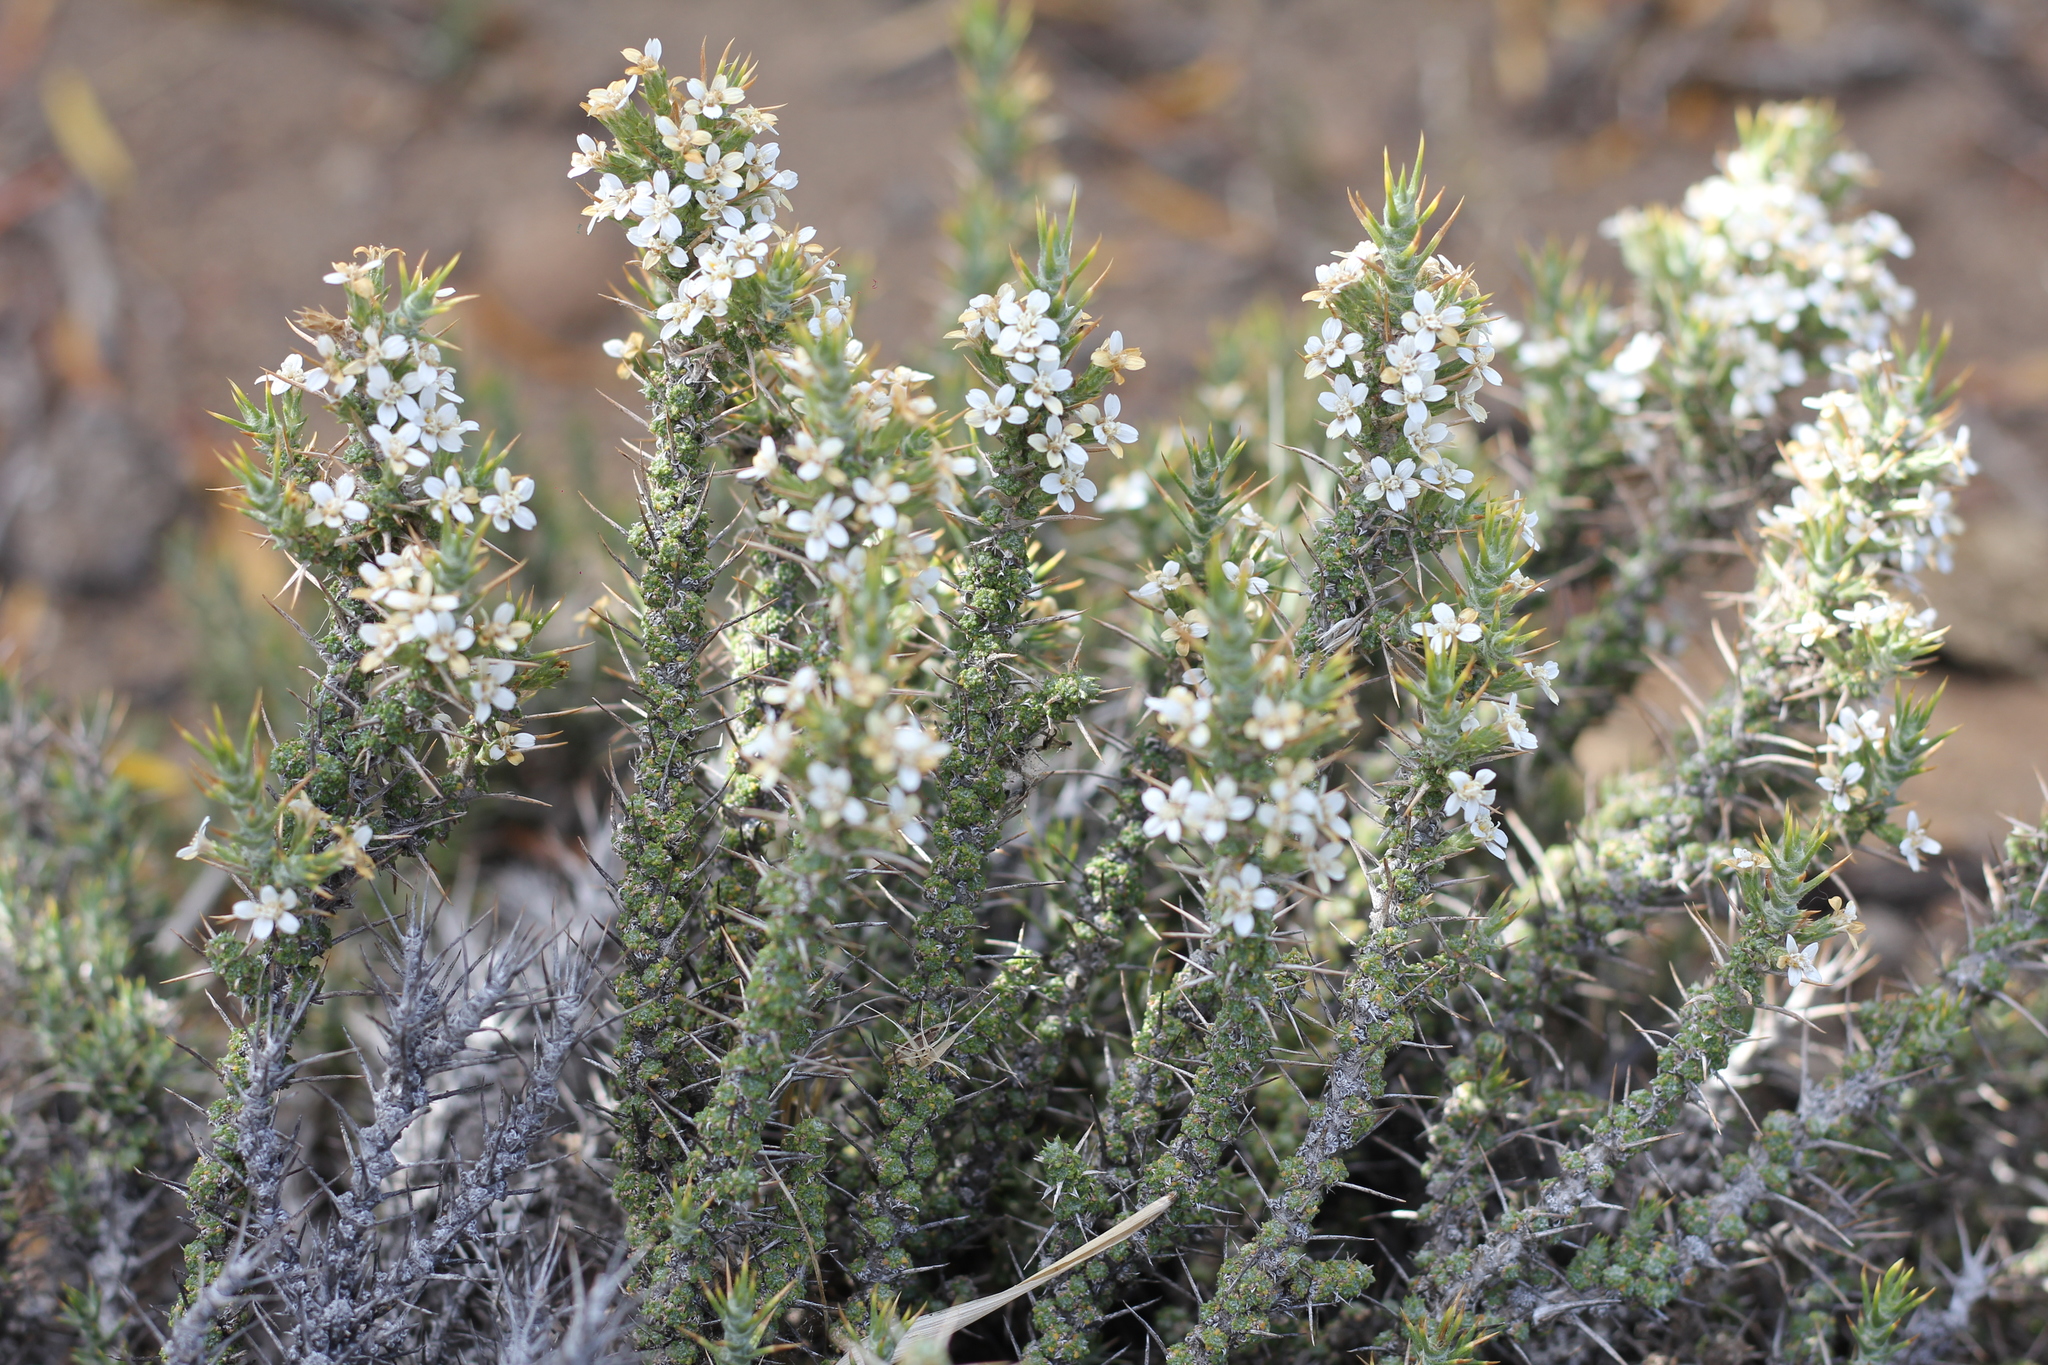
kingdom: Plantae
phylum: Tracheophyta
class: Magnoliopsida
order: Asterales
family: Asteraceae
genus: Nassauvia
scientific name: Nassauvia glomerulosa
